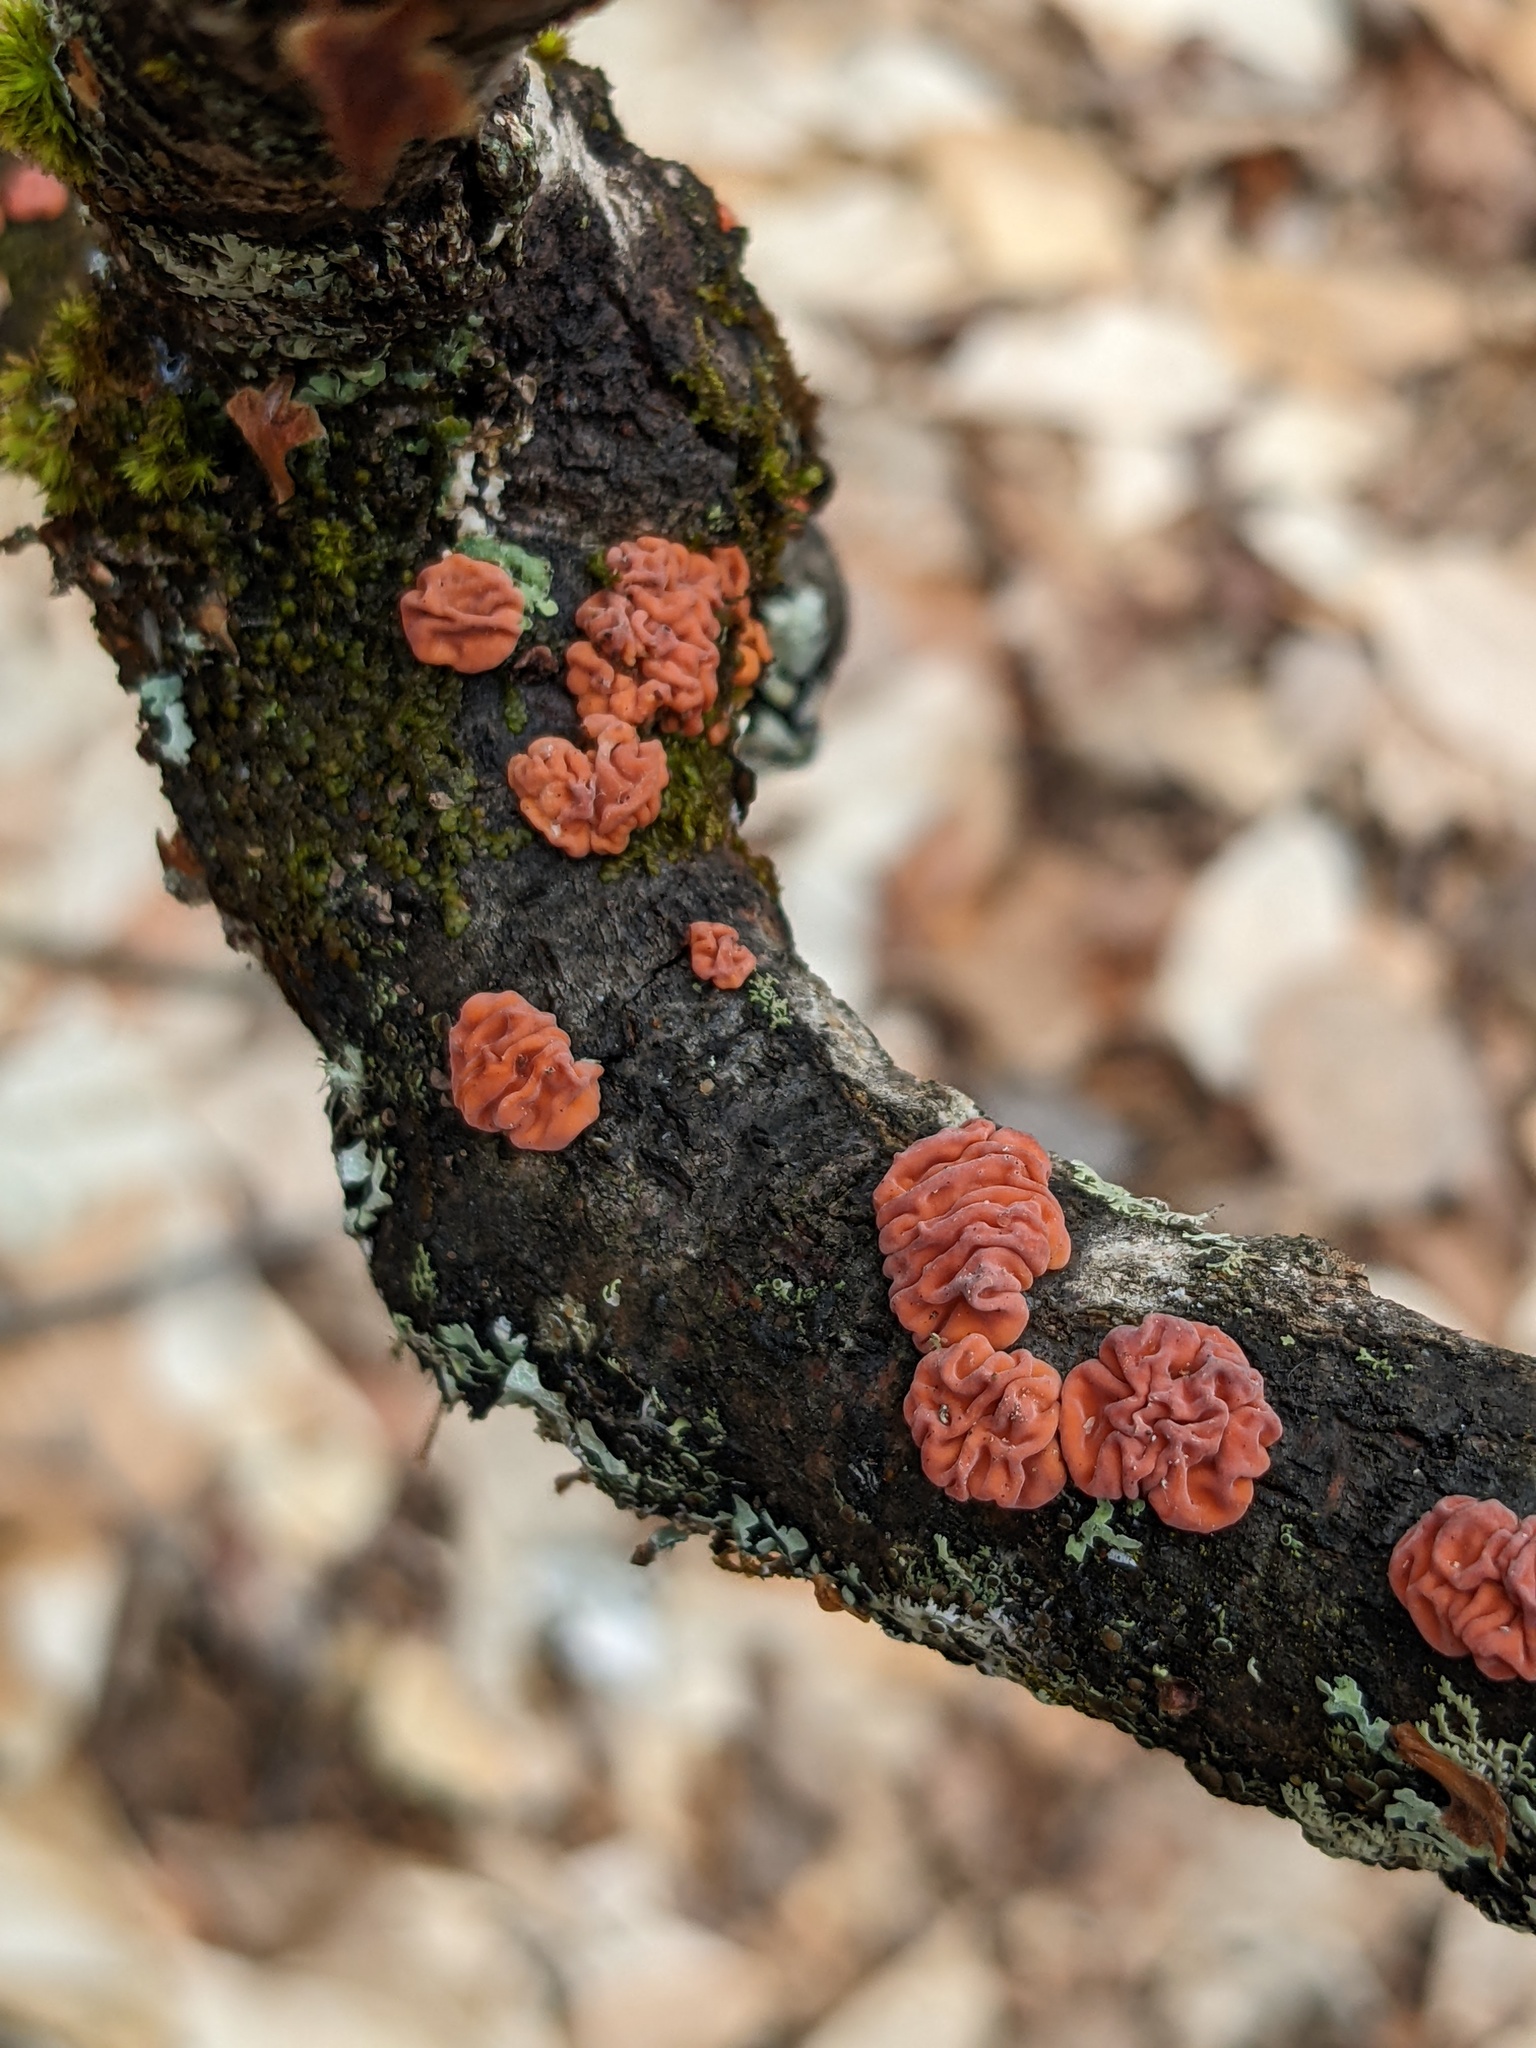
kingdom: Fungi
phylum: Basidiomycota
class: Agaricomycetes
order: Russulales
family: Peniophoraceae
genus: Peniophora
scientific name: Peniophora rufa
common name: Red tree brain fungus
